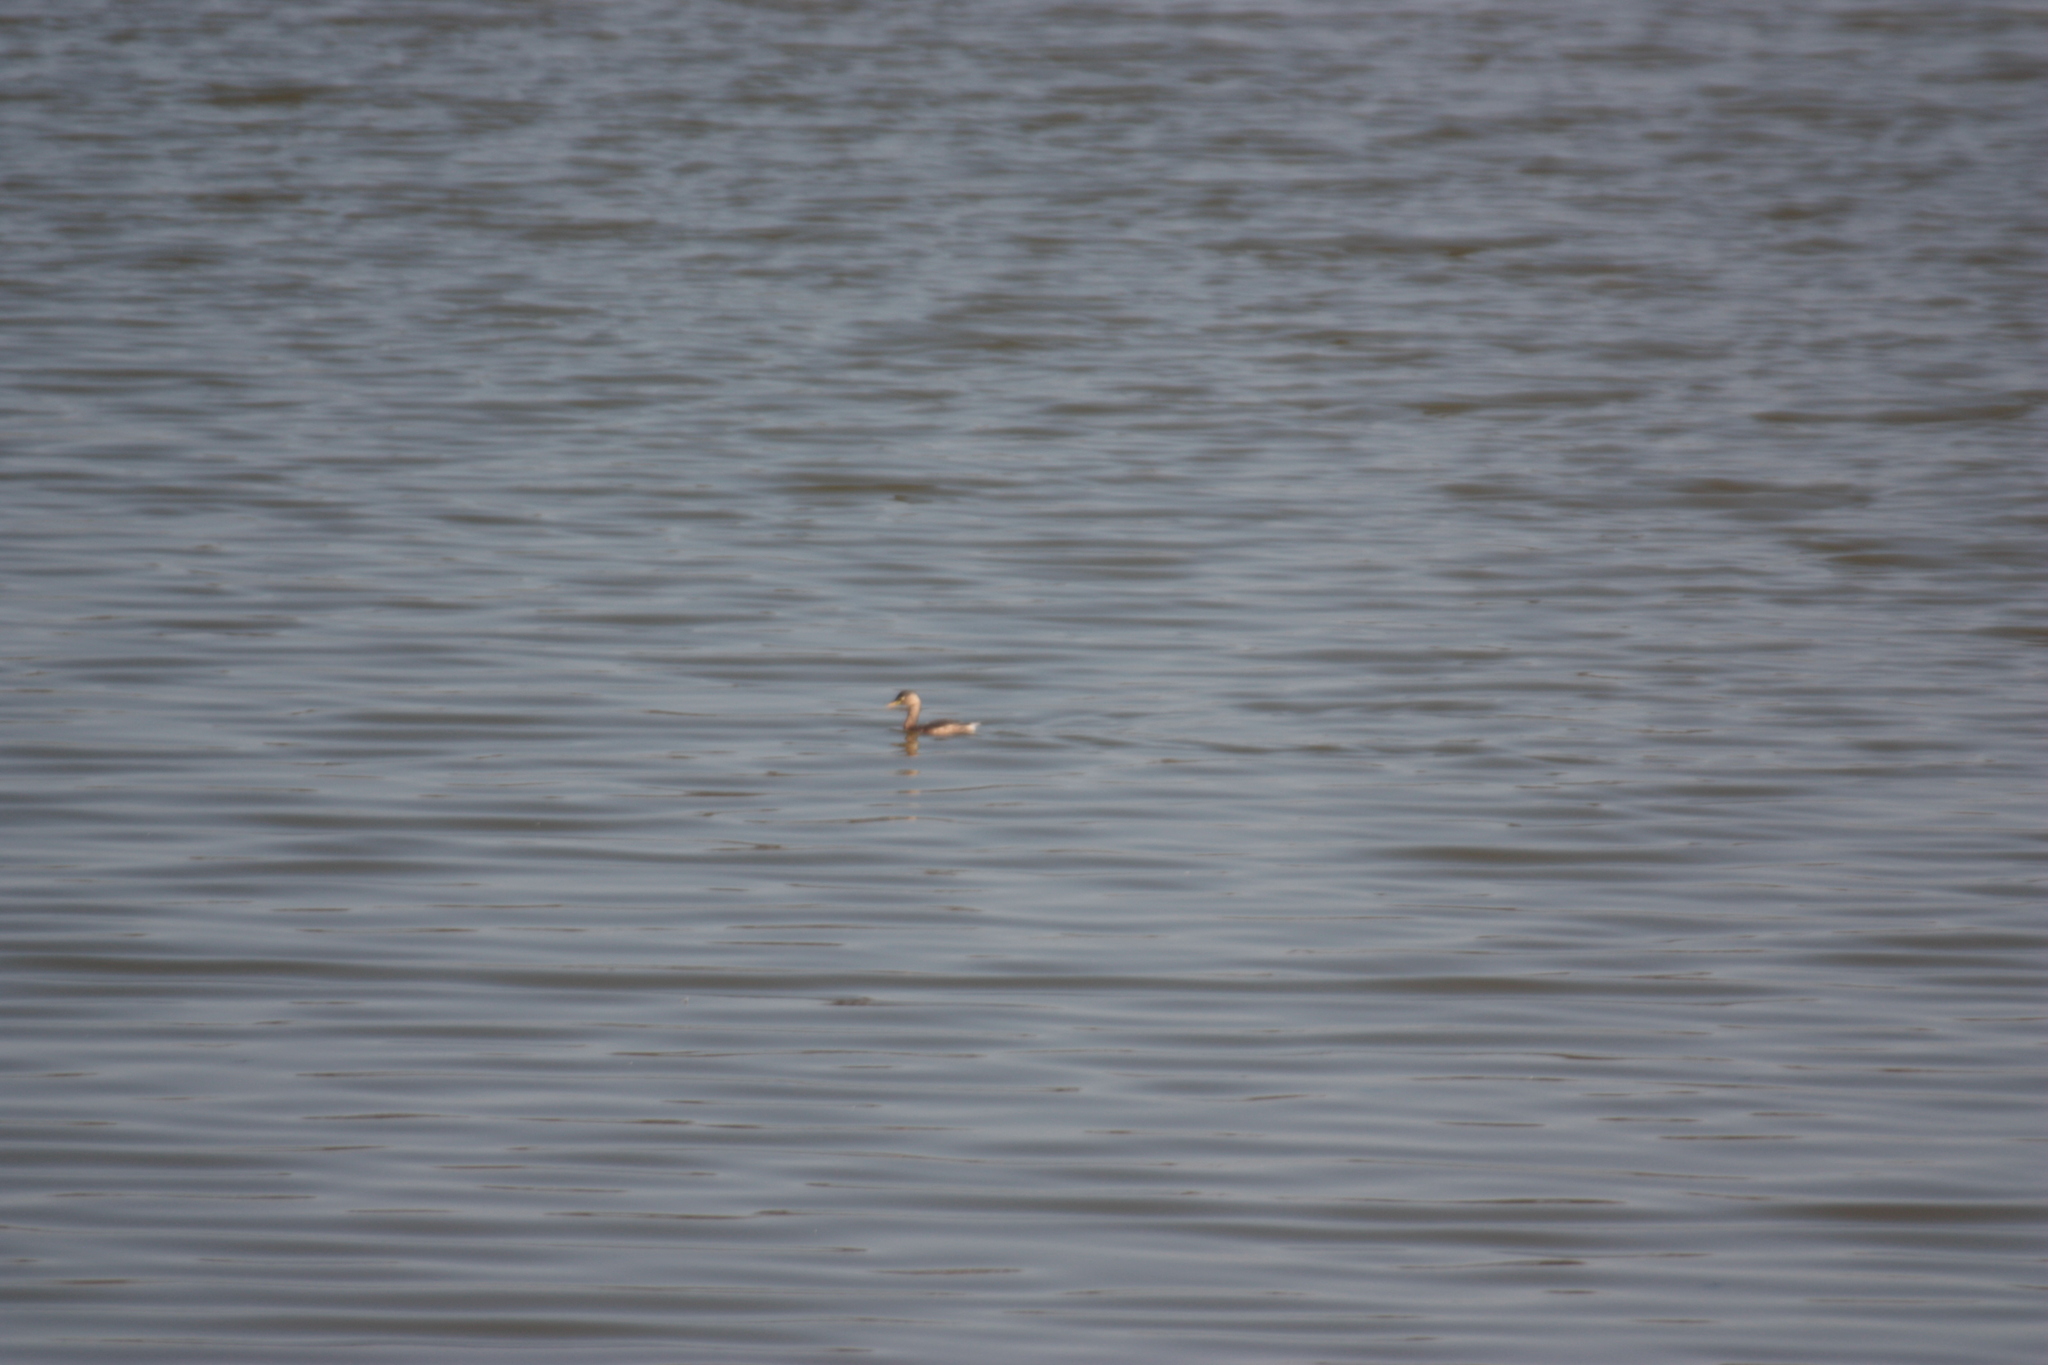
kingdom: Animalia
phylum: Chordata
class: Aves
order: Podicipediformes
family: Podicipedidae
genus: Tachybaptus
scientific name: Tachybaptus ruficollis
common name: Little grebe
